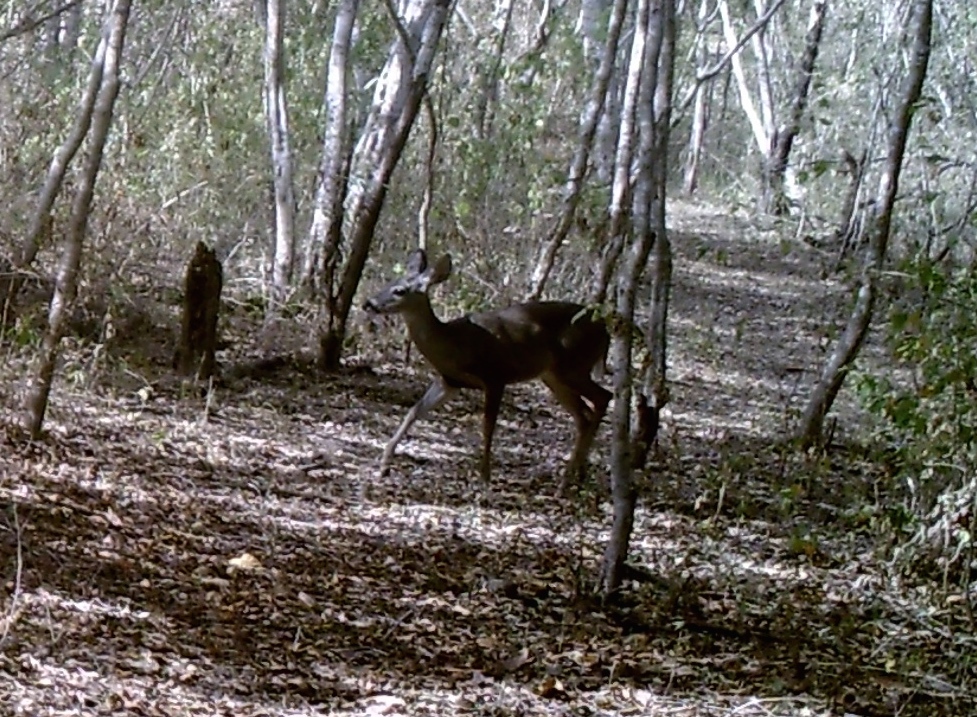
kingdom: Animalia
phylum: Chordata
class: Mammalia
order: Artiodactyla
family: Cervidae
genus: Odocoileus
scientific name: Odocoileus virginianus
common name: White-tailed deer
